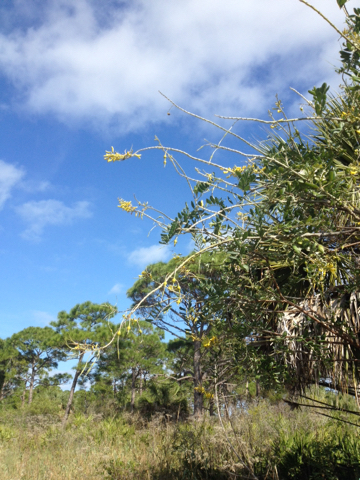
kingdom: Plantae
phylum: Tracheophyta
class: Magnoliopsida
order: Fabales
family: Fabaceae
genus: Sophora
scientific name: Sophora tomentosa
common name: Yellow necklacepod
